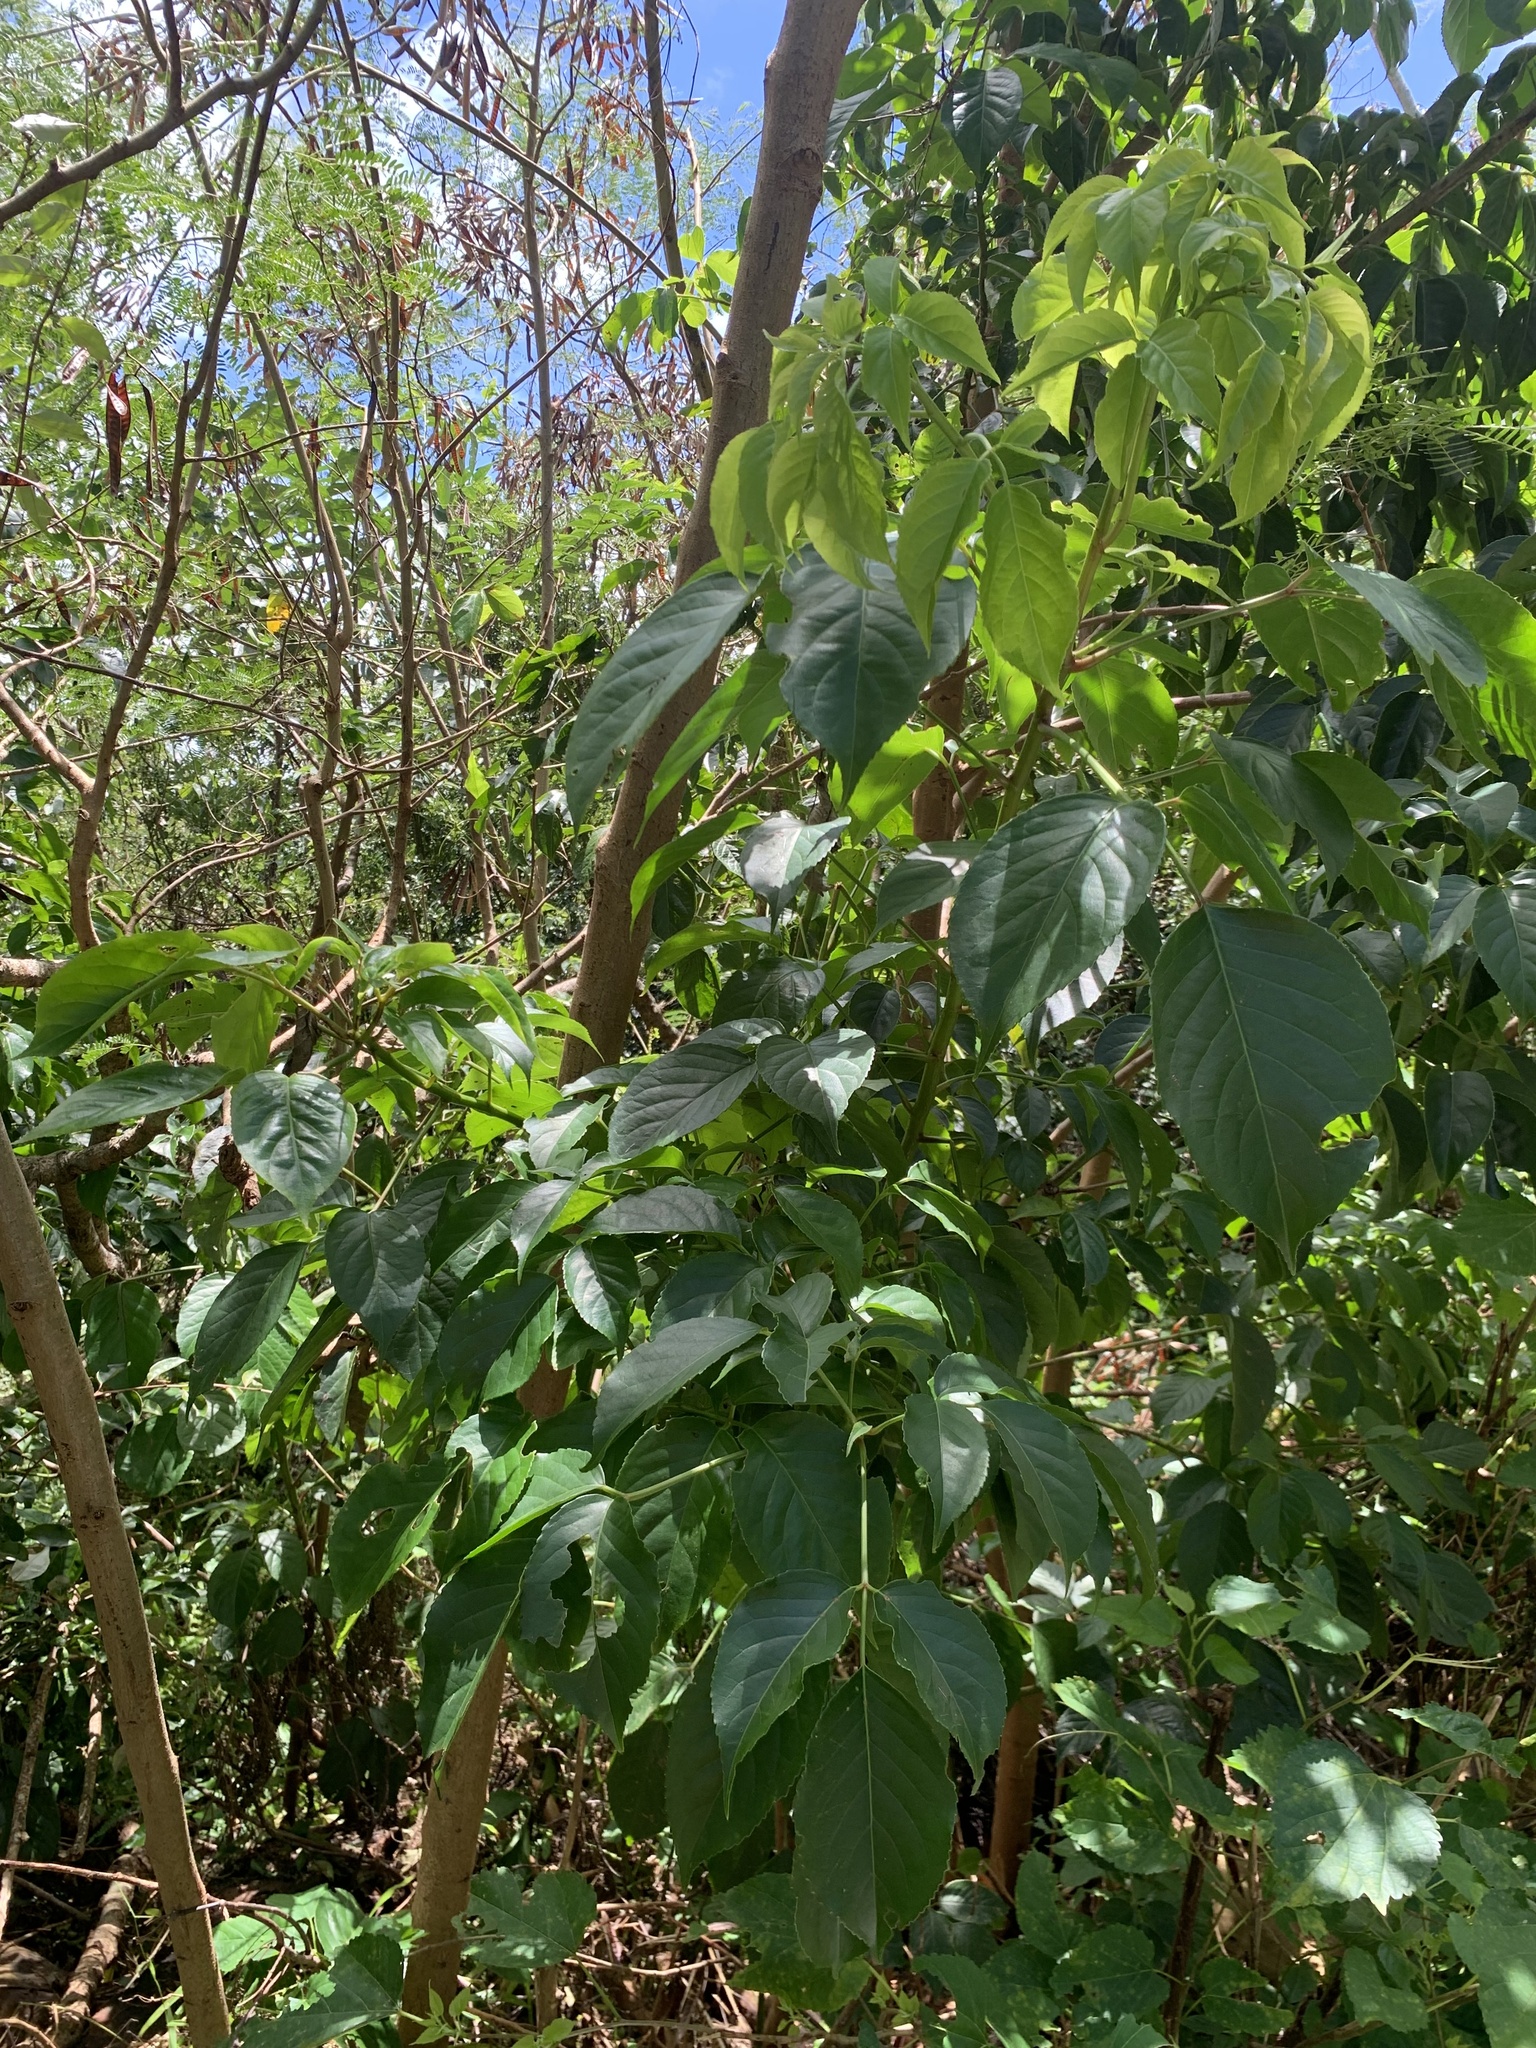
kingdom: Plantae
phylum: Tracheophyta
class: Magnoliopsida
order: Malpighiales
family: Phyllanthaceae
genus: Bischofia
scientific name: Bischofia javanica
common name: Javanese bishopwood
